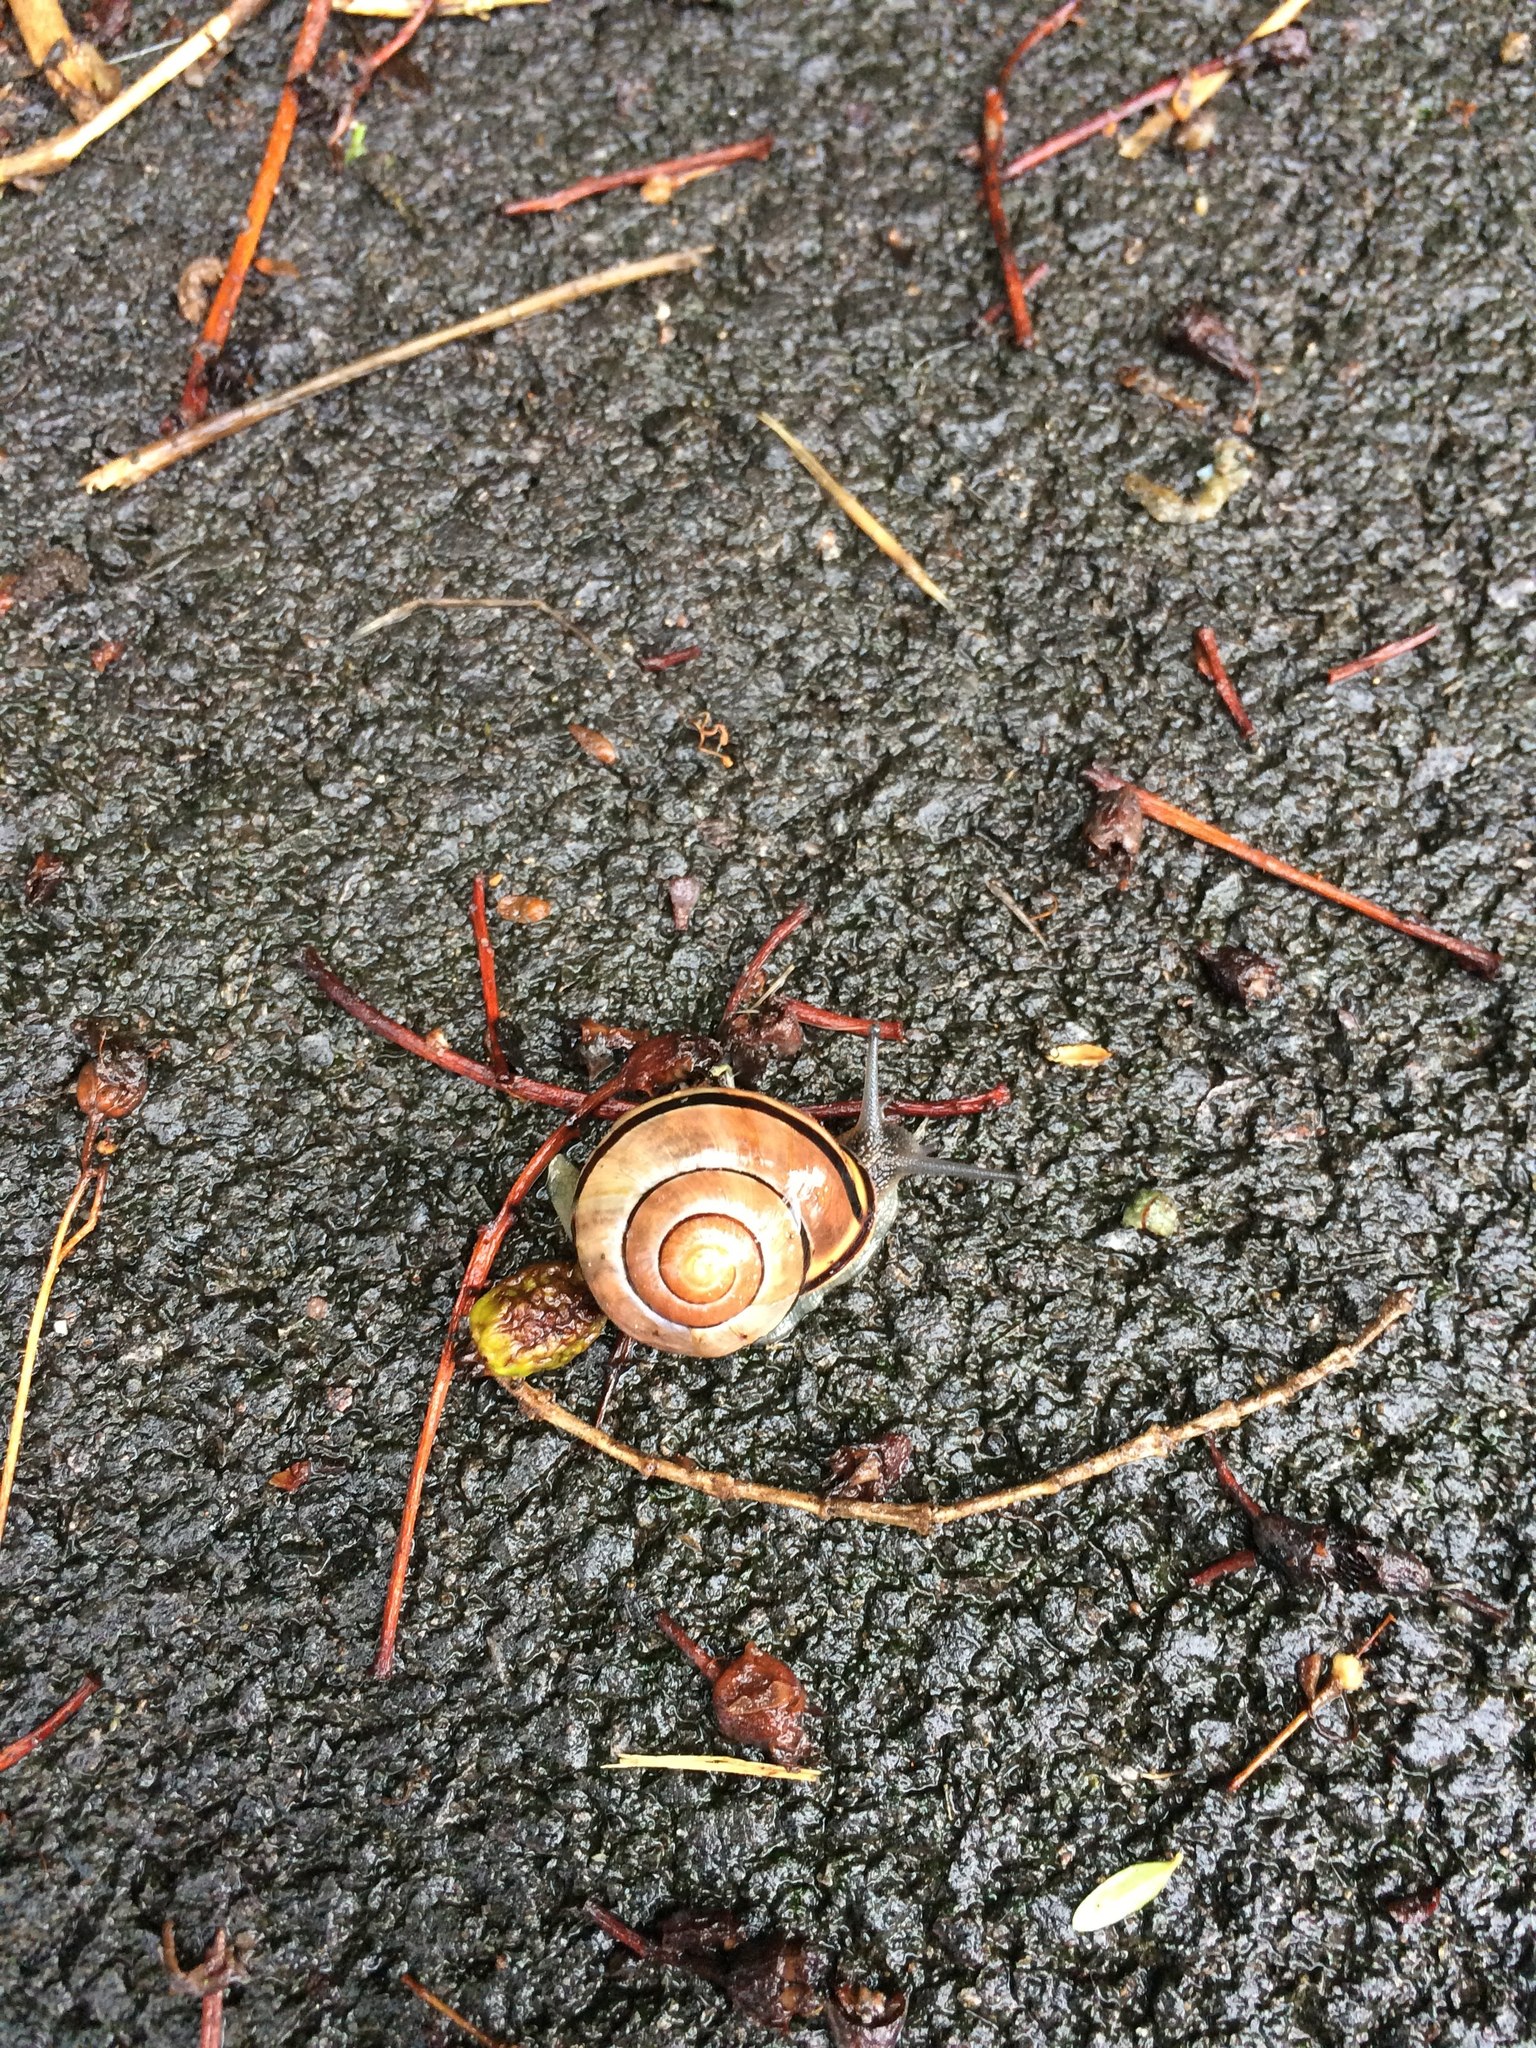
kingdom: Animalia
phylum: Mollusca
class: Gastropoda
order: Stylommatophora
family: Helicidae
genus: Cepaea
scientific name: Cepaea nemoralis
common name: Grovesnail
